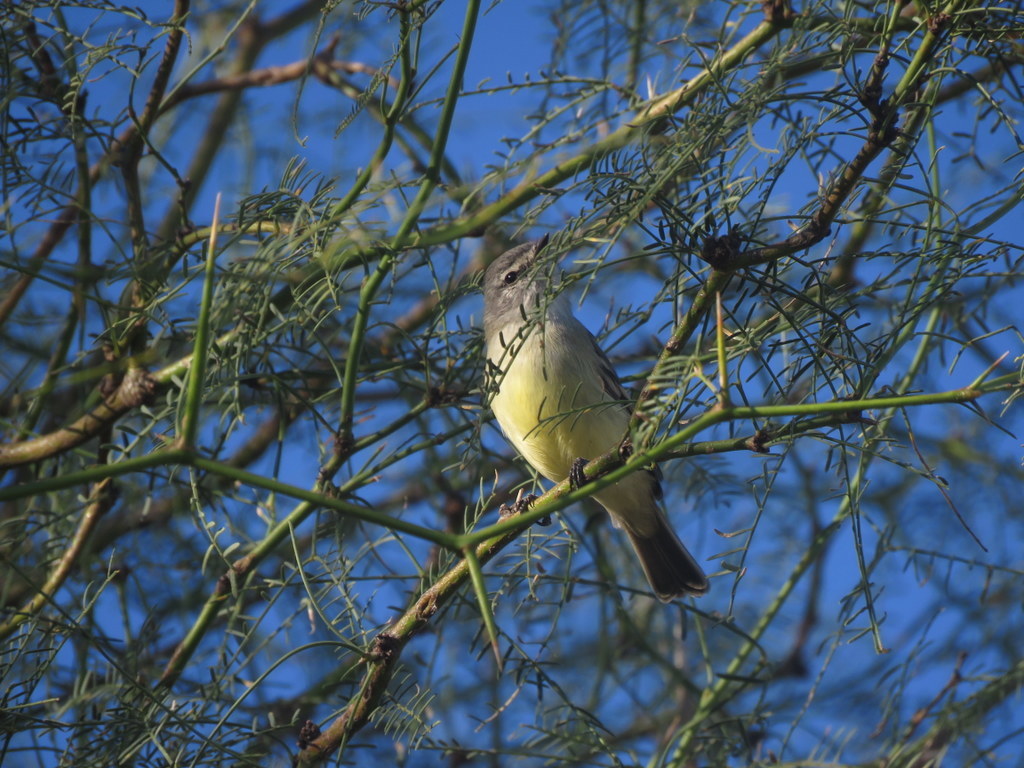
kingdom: Animalia
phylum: Chordata
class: Aves
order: Passeriformes
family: Tyrannidae
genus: Serpophaga
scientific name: Serpophaga griseicapilla
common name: Straneck's tyrannulet
